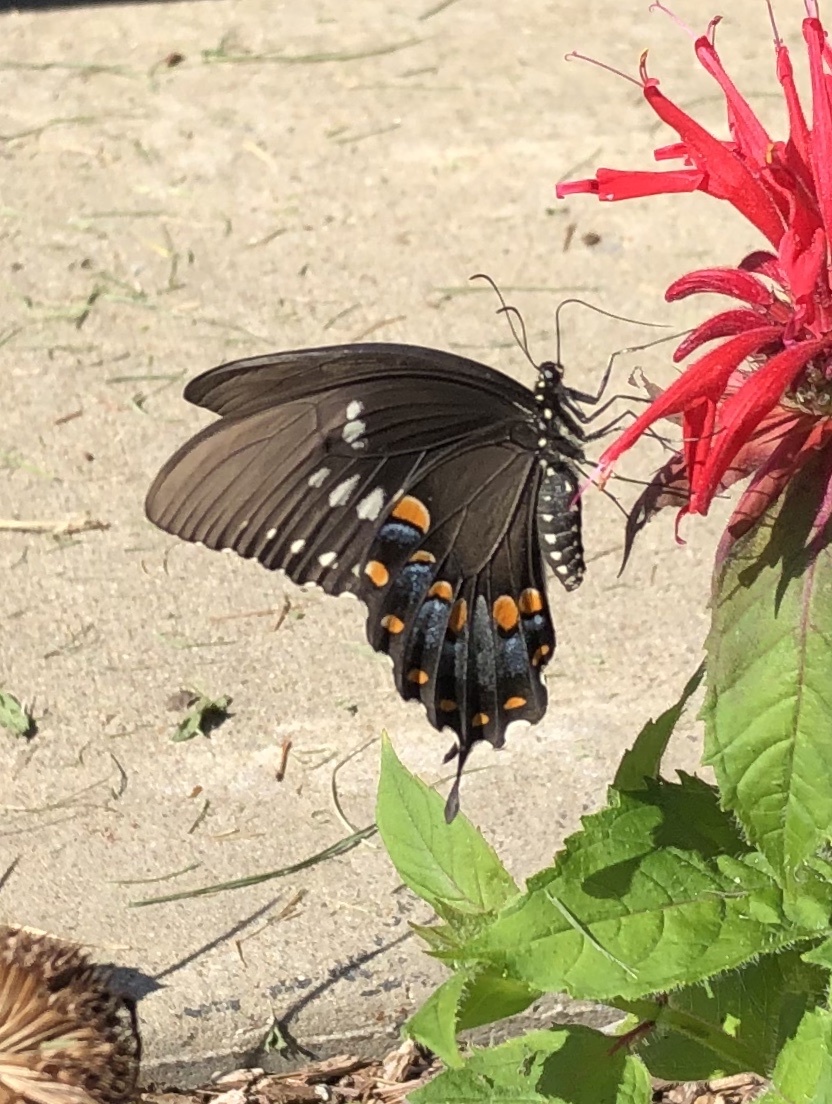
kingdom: Animalia
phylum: Arthropoda
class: Insecta
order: Lepidoptera
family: Papilionidae
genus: Papilio
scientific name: Papilio troilus
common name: Spicebush swallowtail
